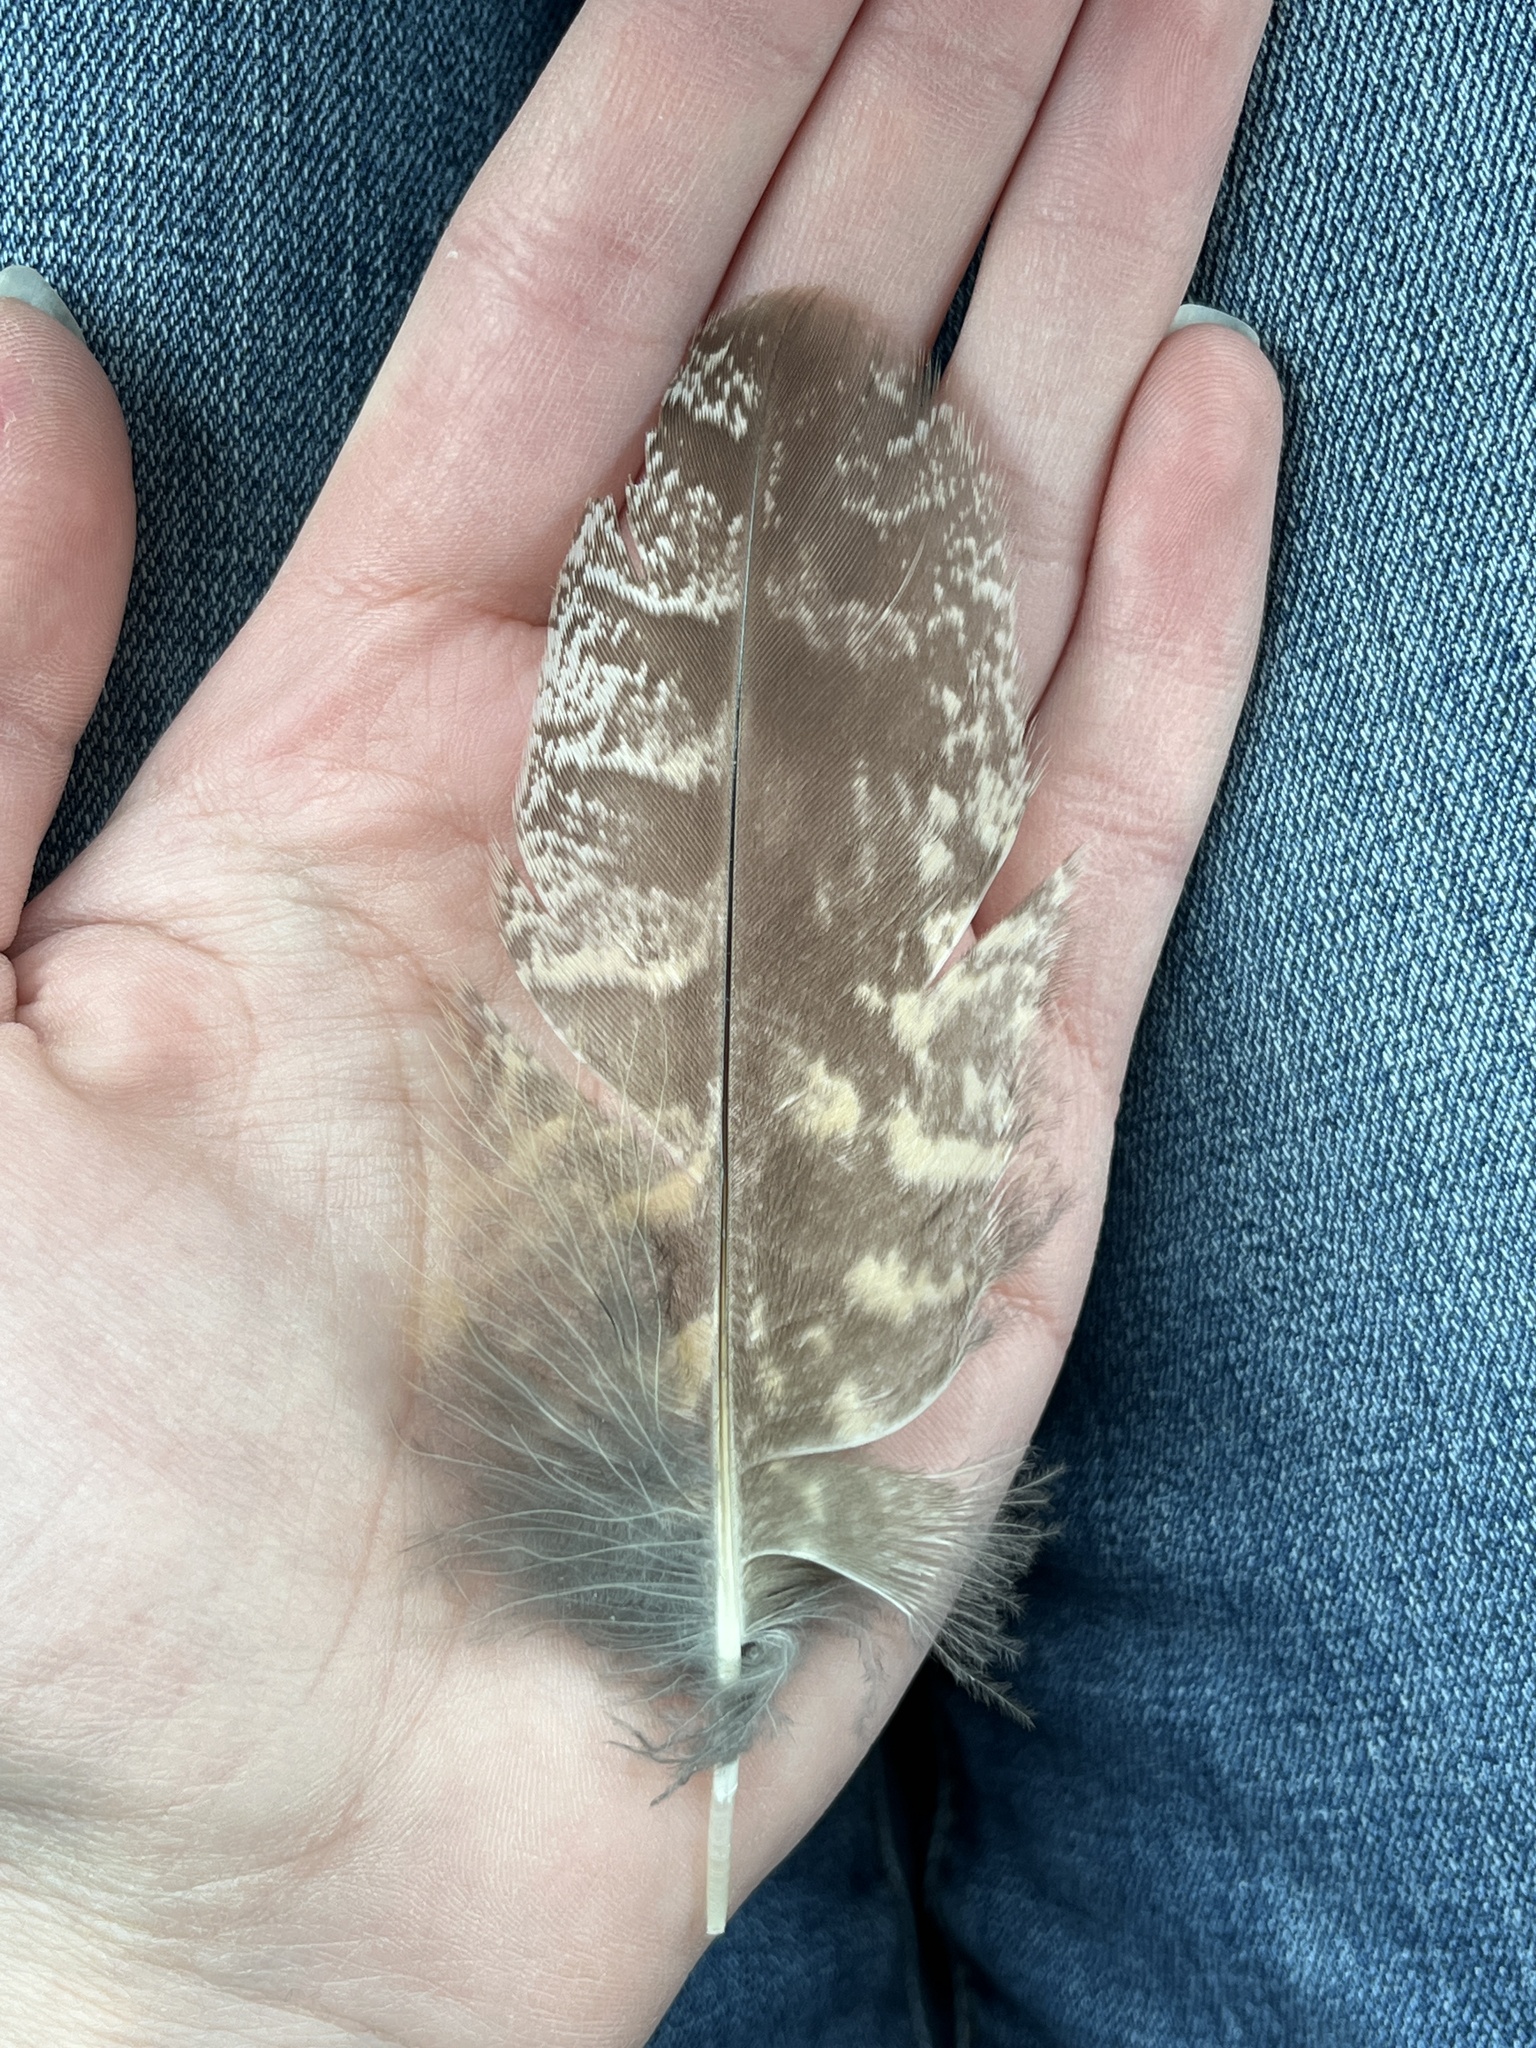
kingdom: Animalia
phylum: Chordata
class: Aves
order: Strigiformes
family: Strigidae
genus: Bubo
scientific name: Bubo virginianus
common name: Great horned owl
